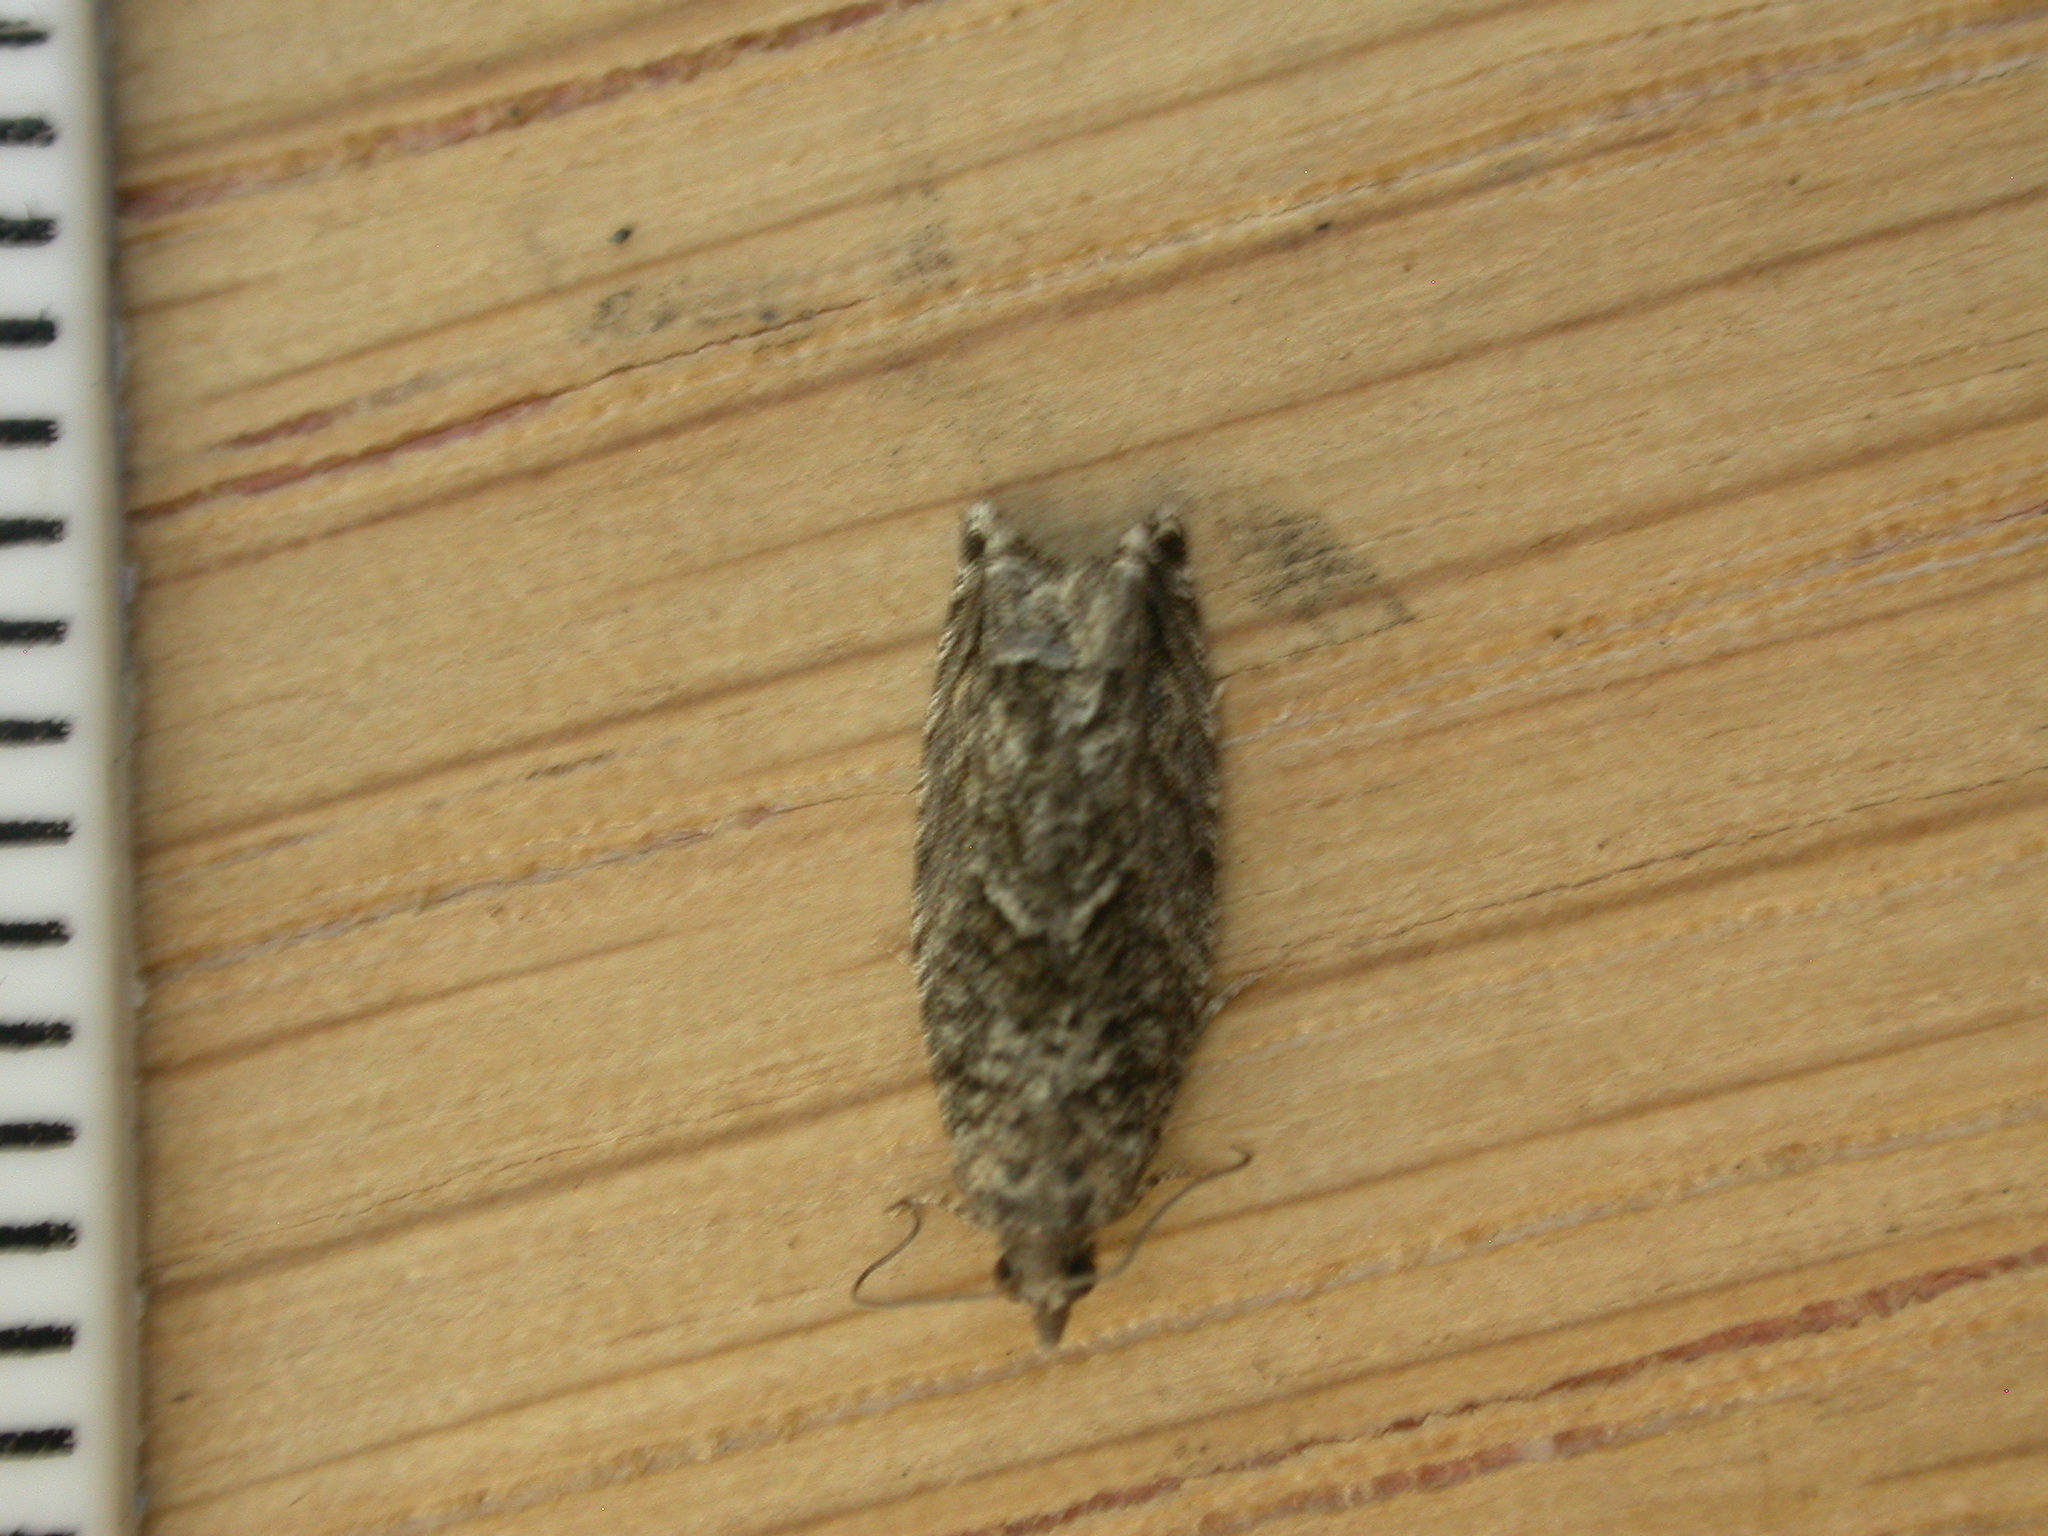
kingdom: Animalia
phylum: Arthropoda
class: Insecta
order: Lepidoptera
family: Tortricidae
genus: Epinotia
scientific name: Epinotia nisella
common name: Grey poplar bell
